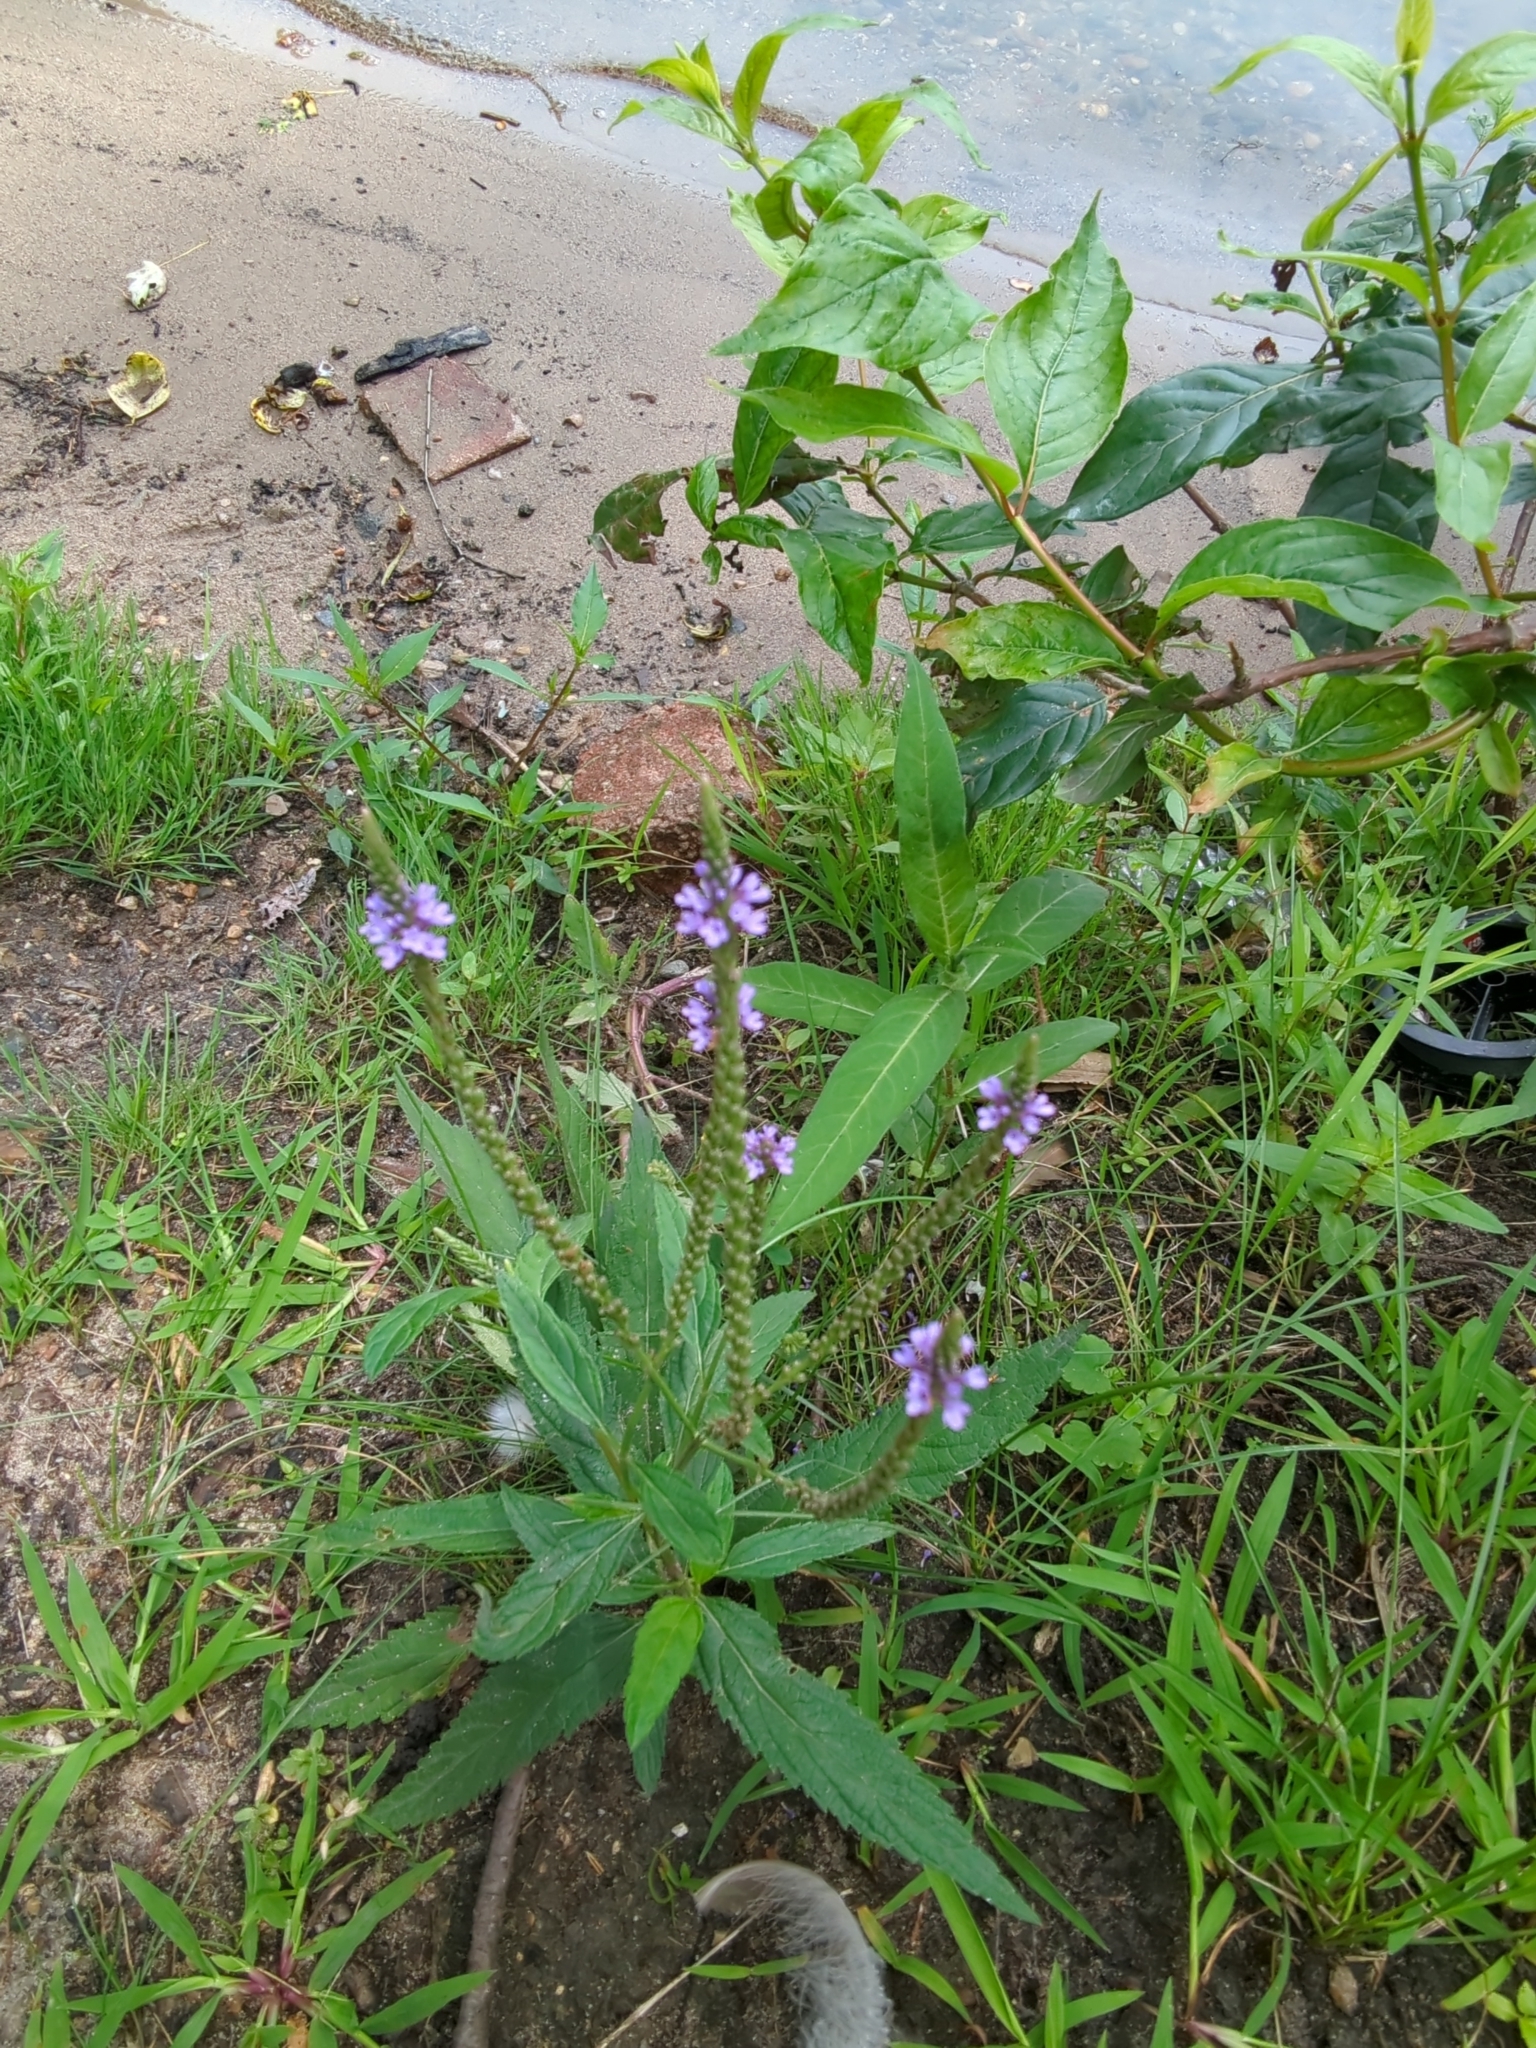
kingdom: Plantae
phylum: Tracheophyta
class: Magnoliopsida
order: Lamiales
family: Verbenaceae
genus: Verbena
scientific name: Verbena hastata
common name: American blue vervain
